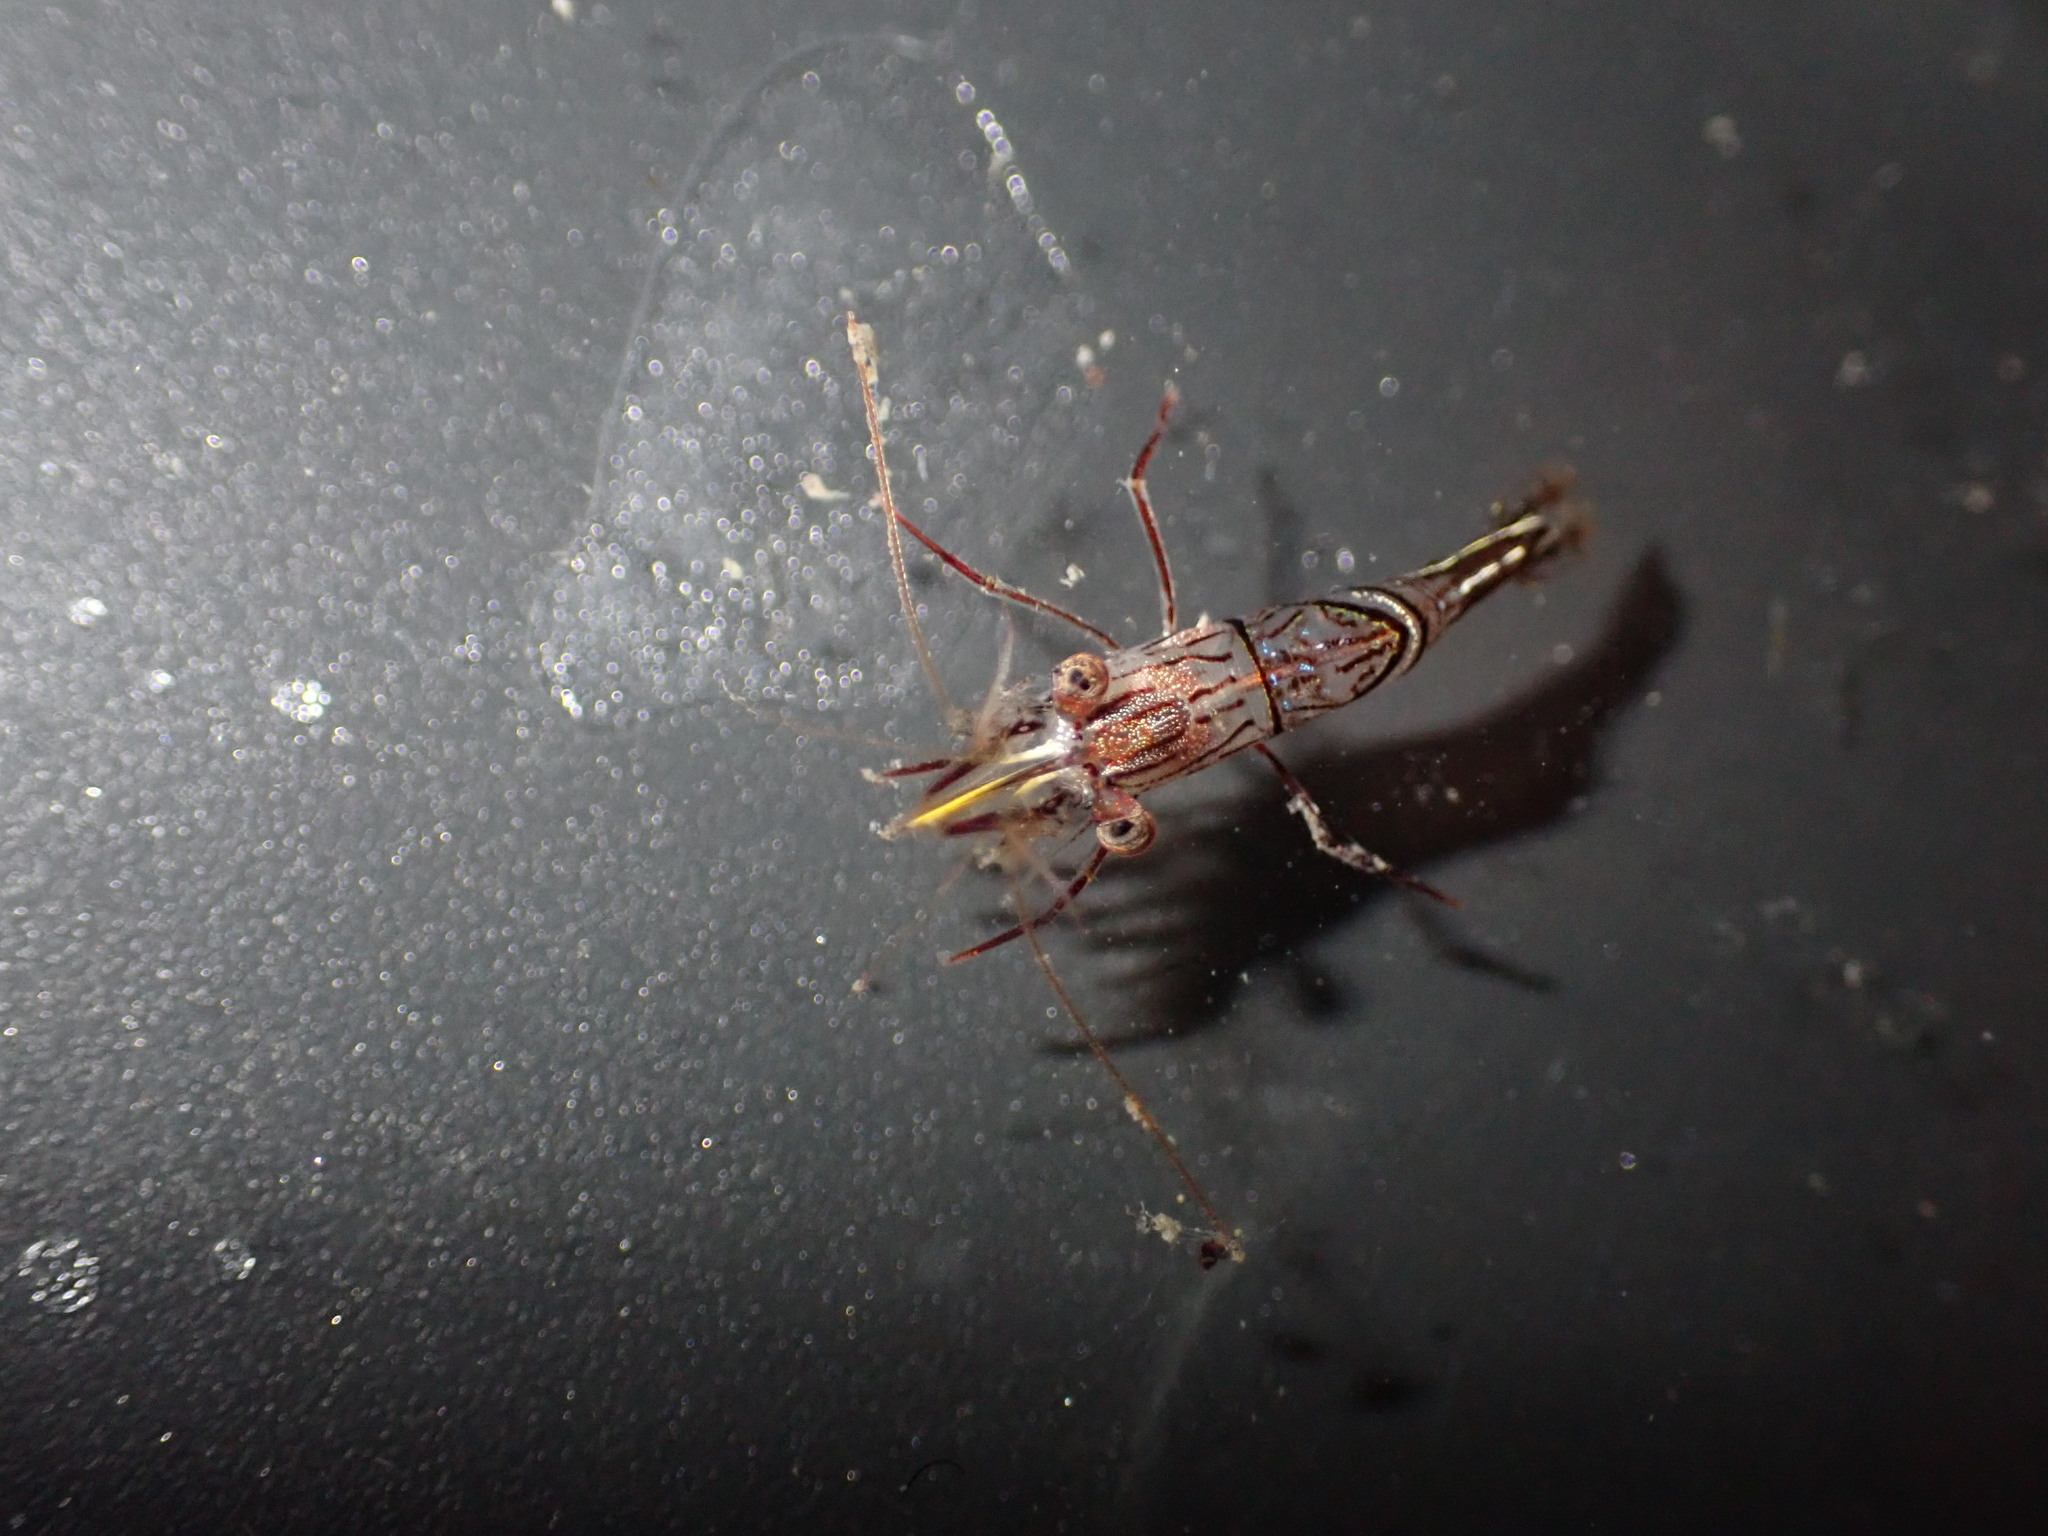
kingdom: Animalia
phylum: Arthropoda
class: Malacostraca
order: Decapoda
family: Rhynchocinetidae
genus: Rhynchocinetes
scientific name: Rhynchocinetes australis
